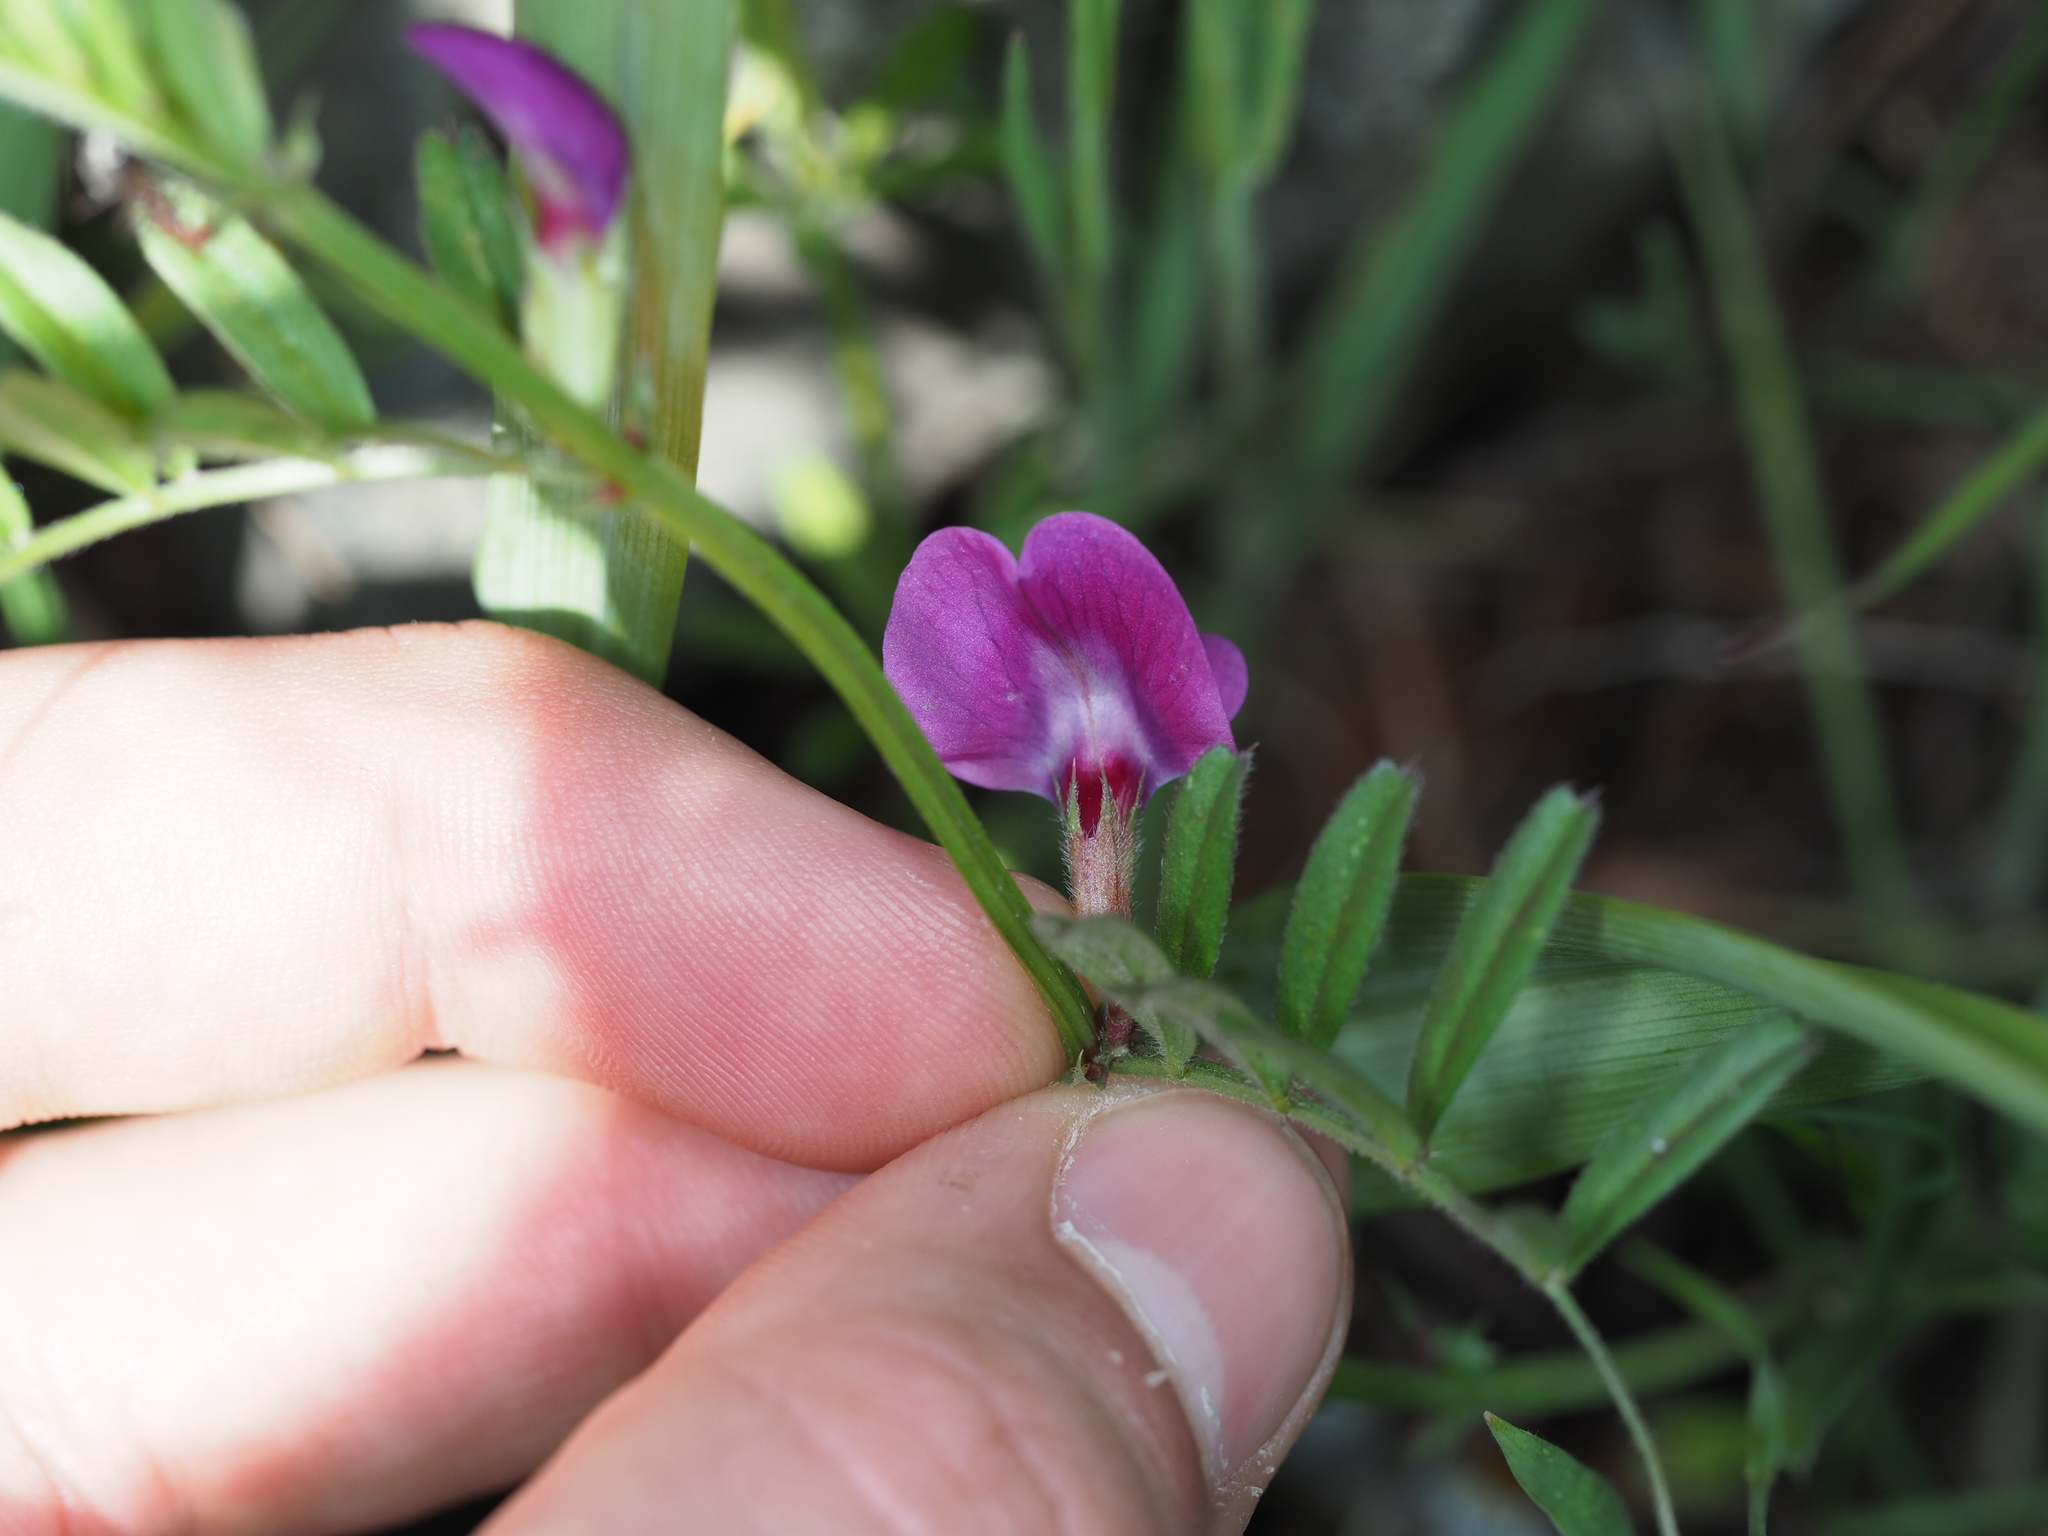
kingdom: Plantae
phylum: Tracheophyta
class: Magnoliopsida
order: Fabales
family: Fabaceae
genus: Vicia
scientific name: Vicia sativa
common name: Garden vetch
